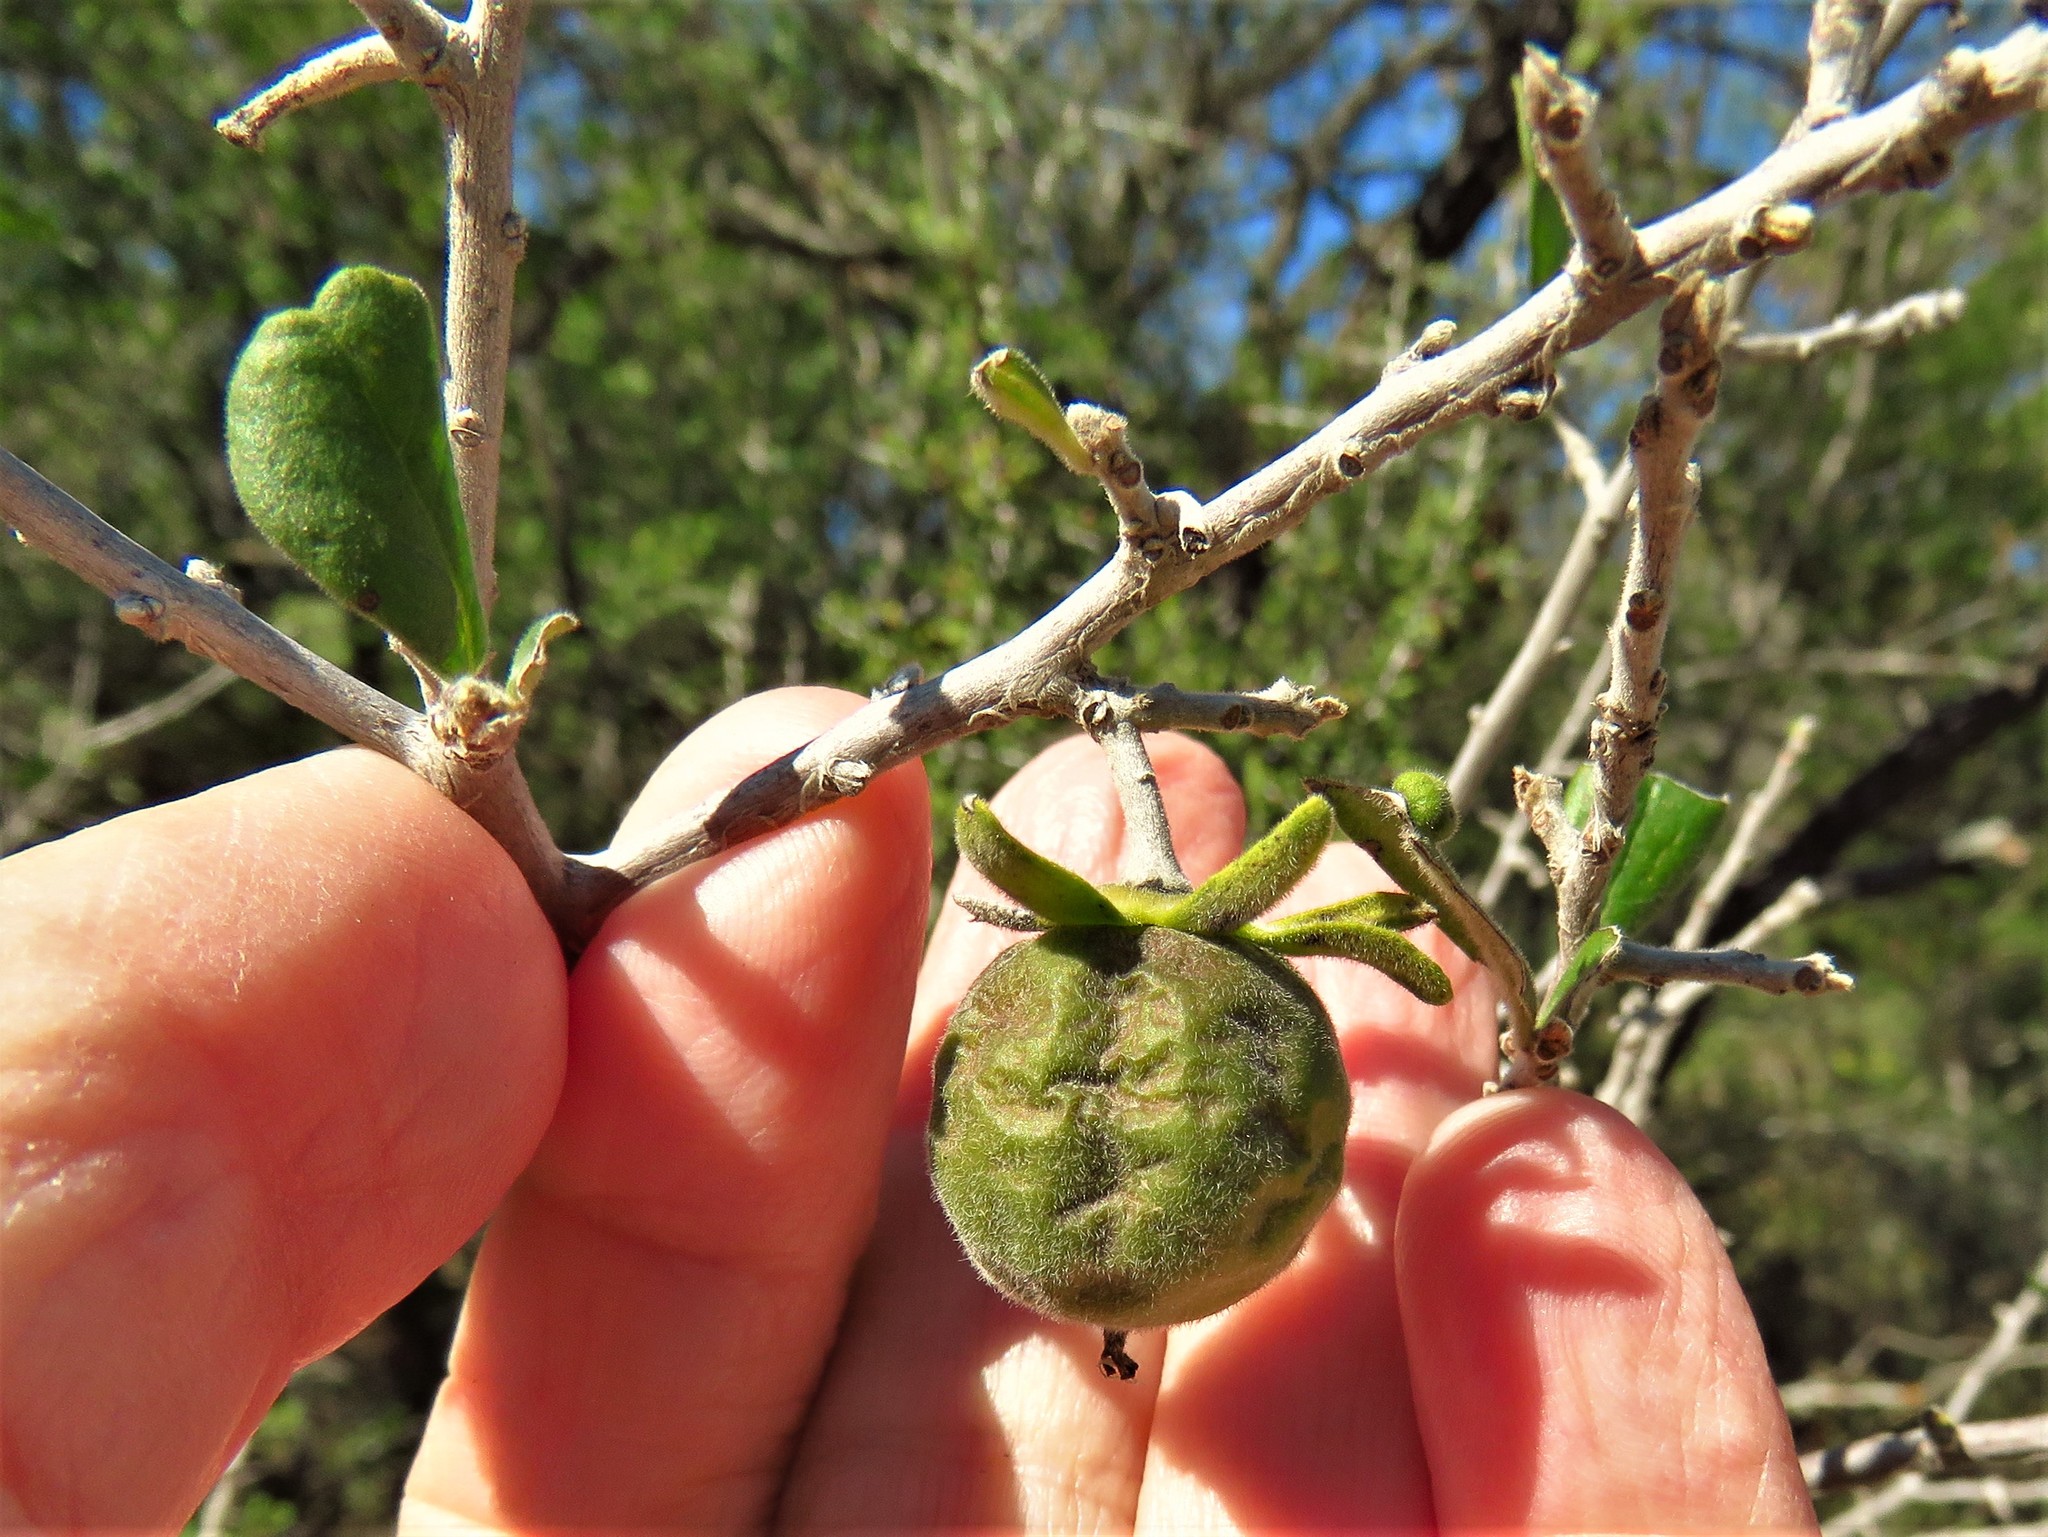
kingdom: Plantae
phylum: Tracheophyta
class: Magnoliopsida
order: Ericales
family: Ebenaceae
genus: Diospyros
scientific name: Diospyros texana
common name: Texas persimmon
